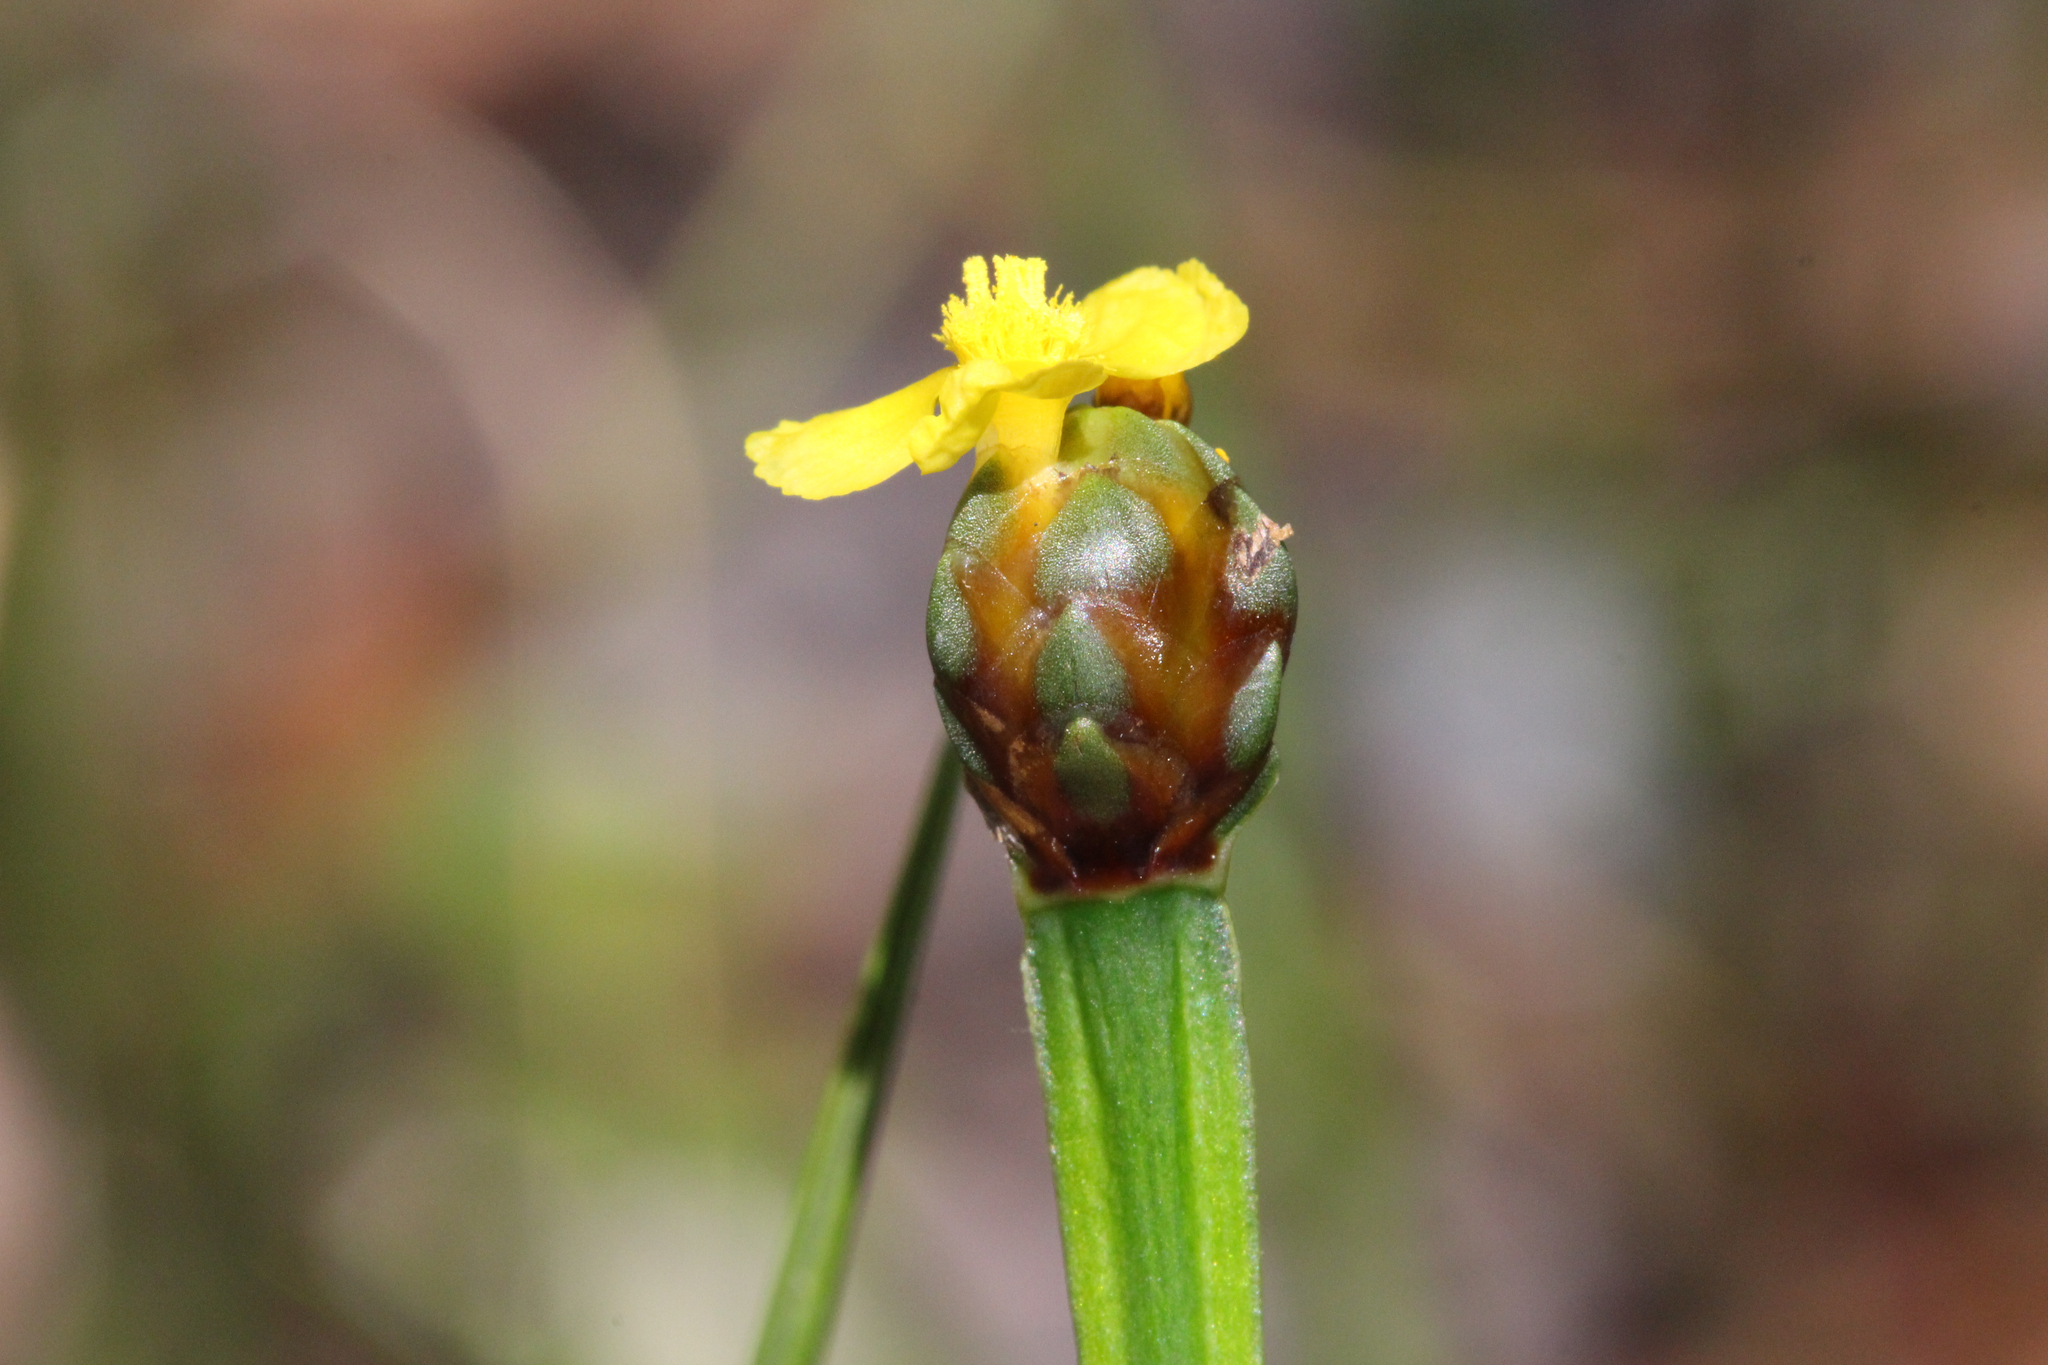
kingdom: Plantae
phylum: Tracheophyta
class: Liliopsida
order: Poales
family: Xyridaceae
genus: Xyris
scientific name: Xyris difformis
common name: Bog yellow-eyed-grass
